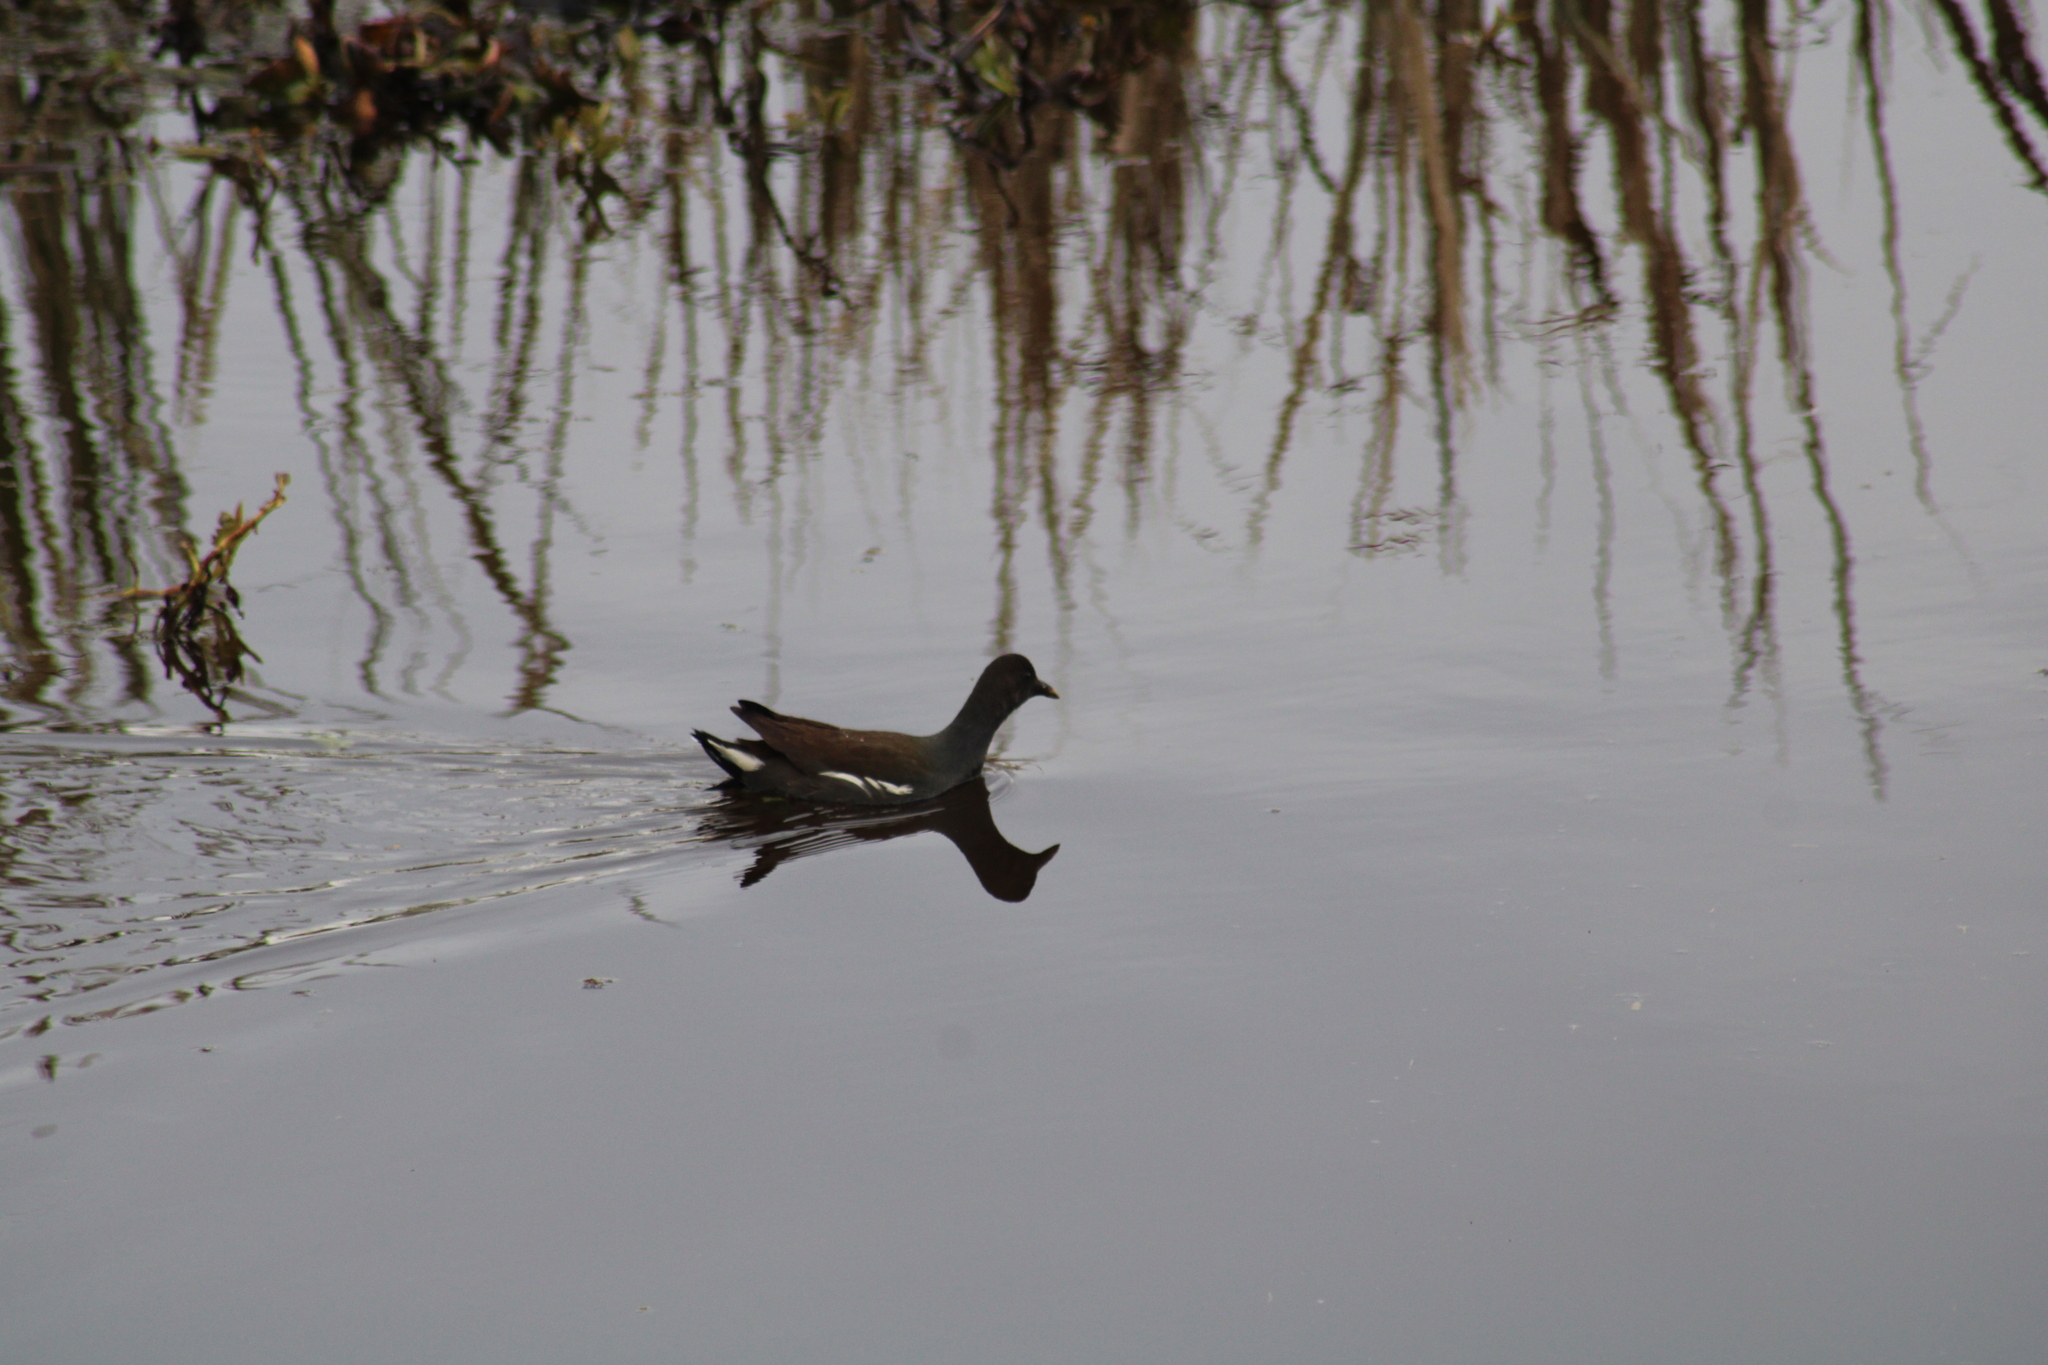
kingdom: Animalia
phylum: Chordata
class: Aves
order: Gruiformes
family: Rallidae
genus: Gallinula
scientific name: Gallinula chloropus
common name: Common moorhen
